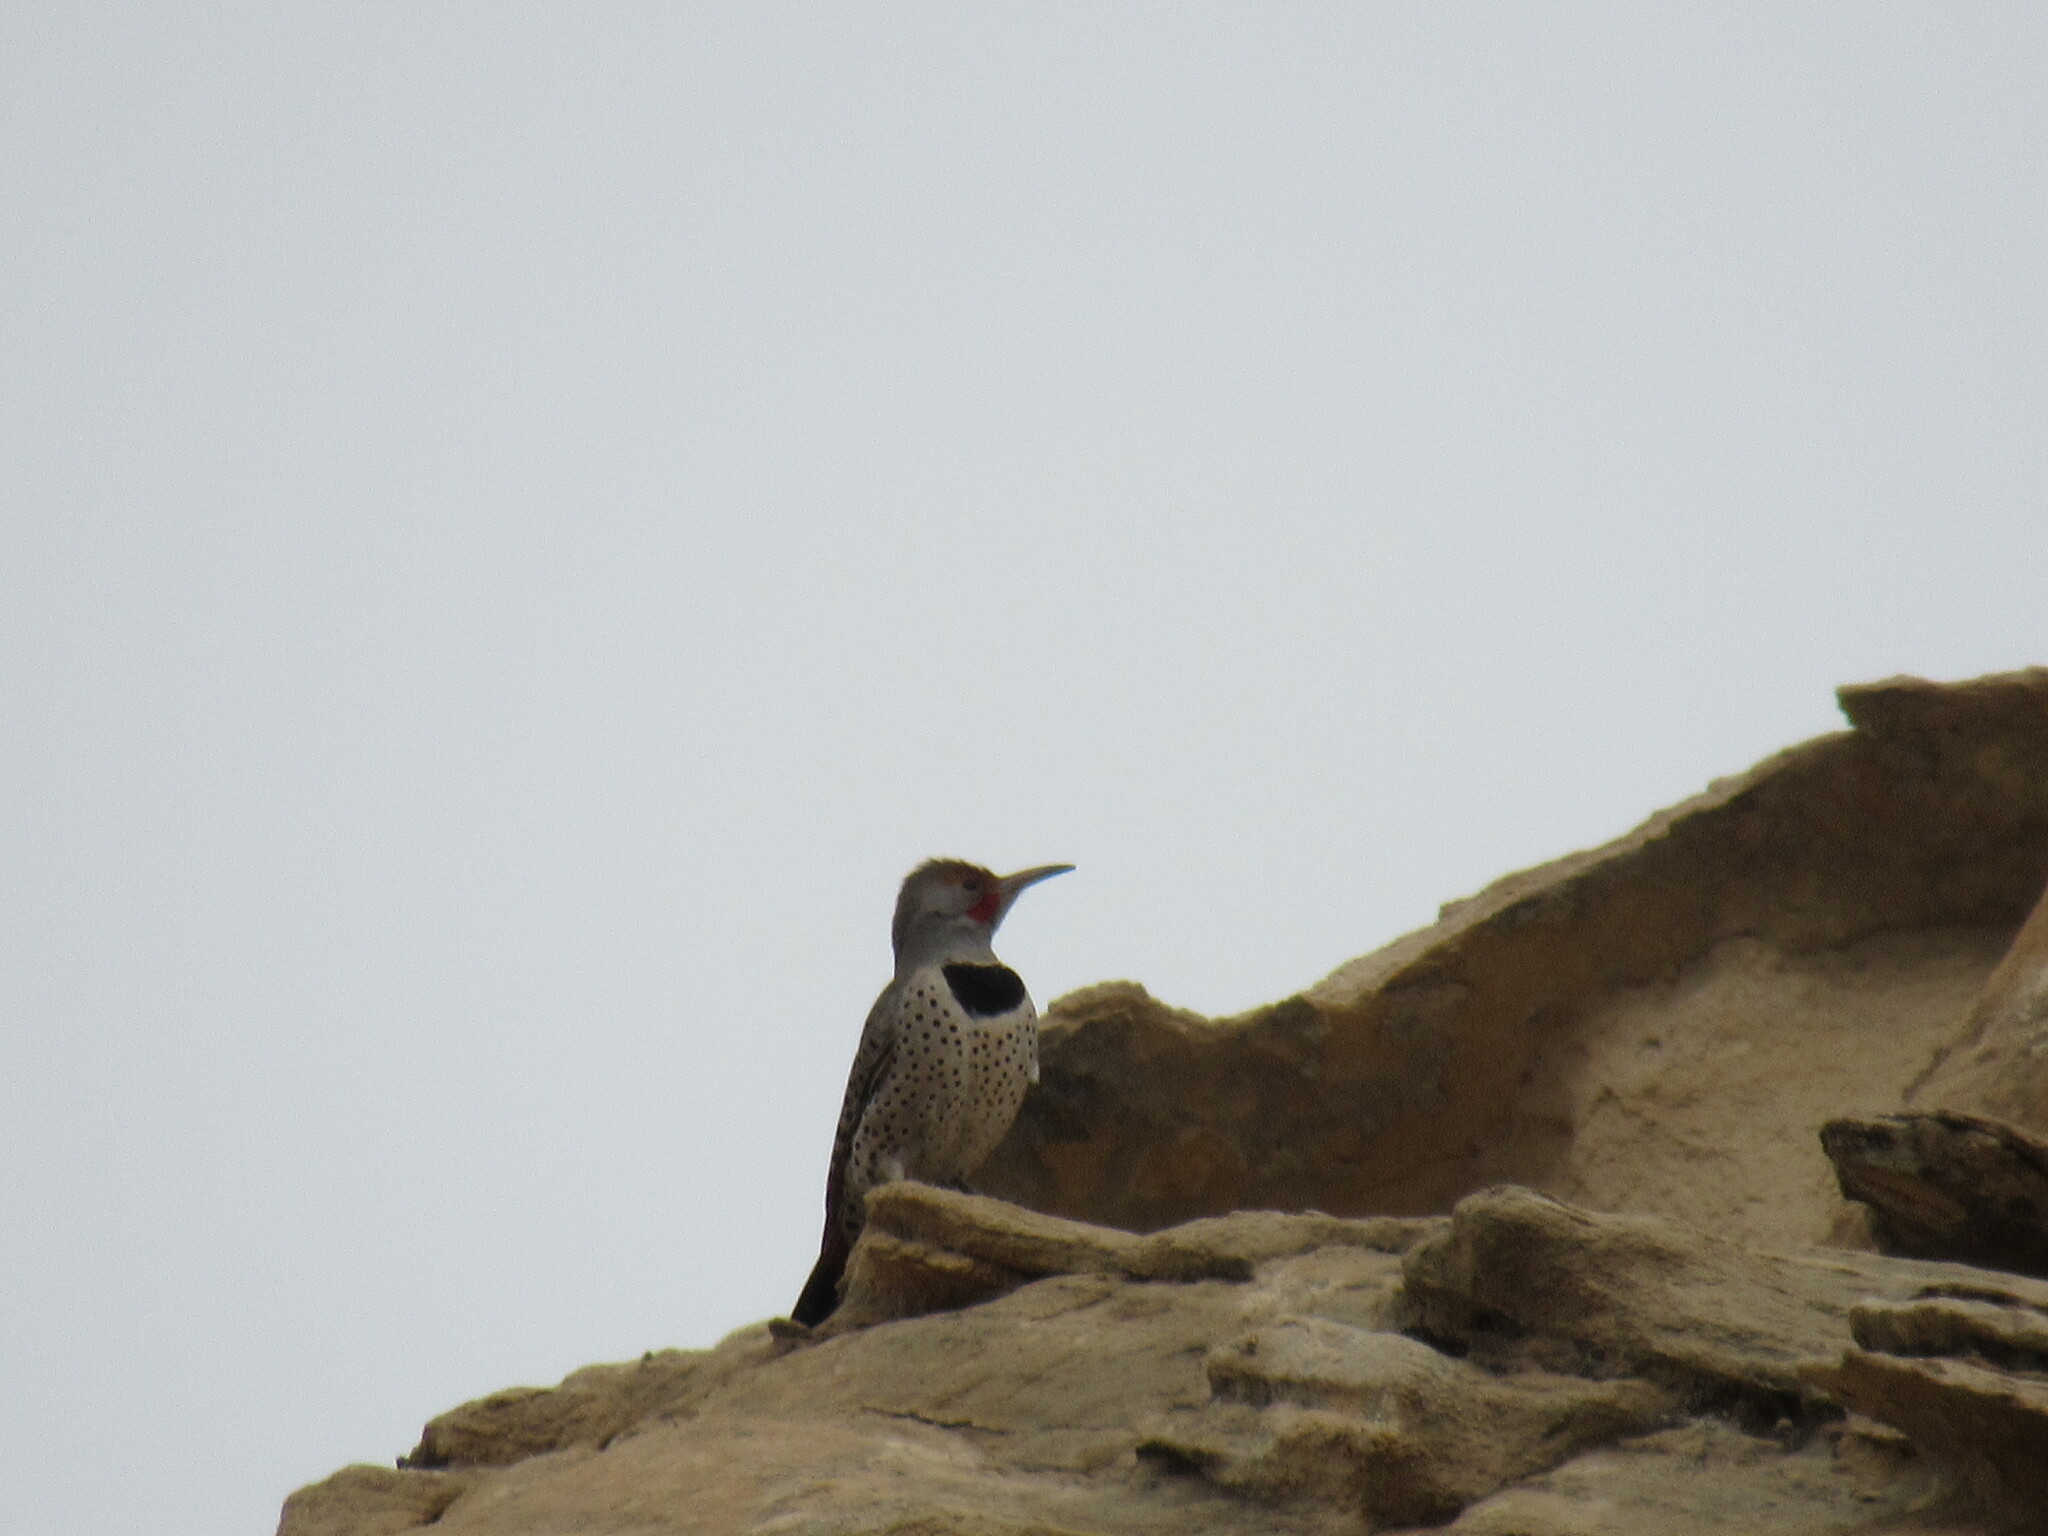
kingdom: Animalia
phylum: Chordata
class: Aves
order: Piciformes
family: Picidae
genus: Colaptes
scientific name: Colaptes auratus
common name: Northern flicker
